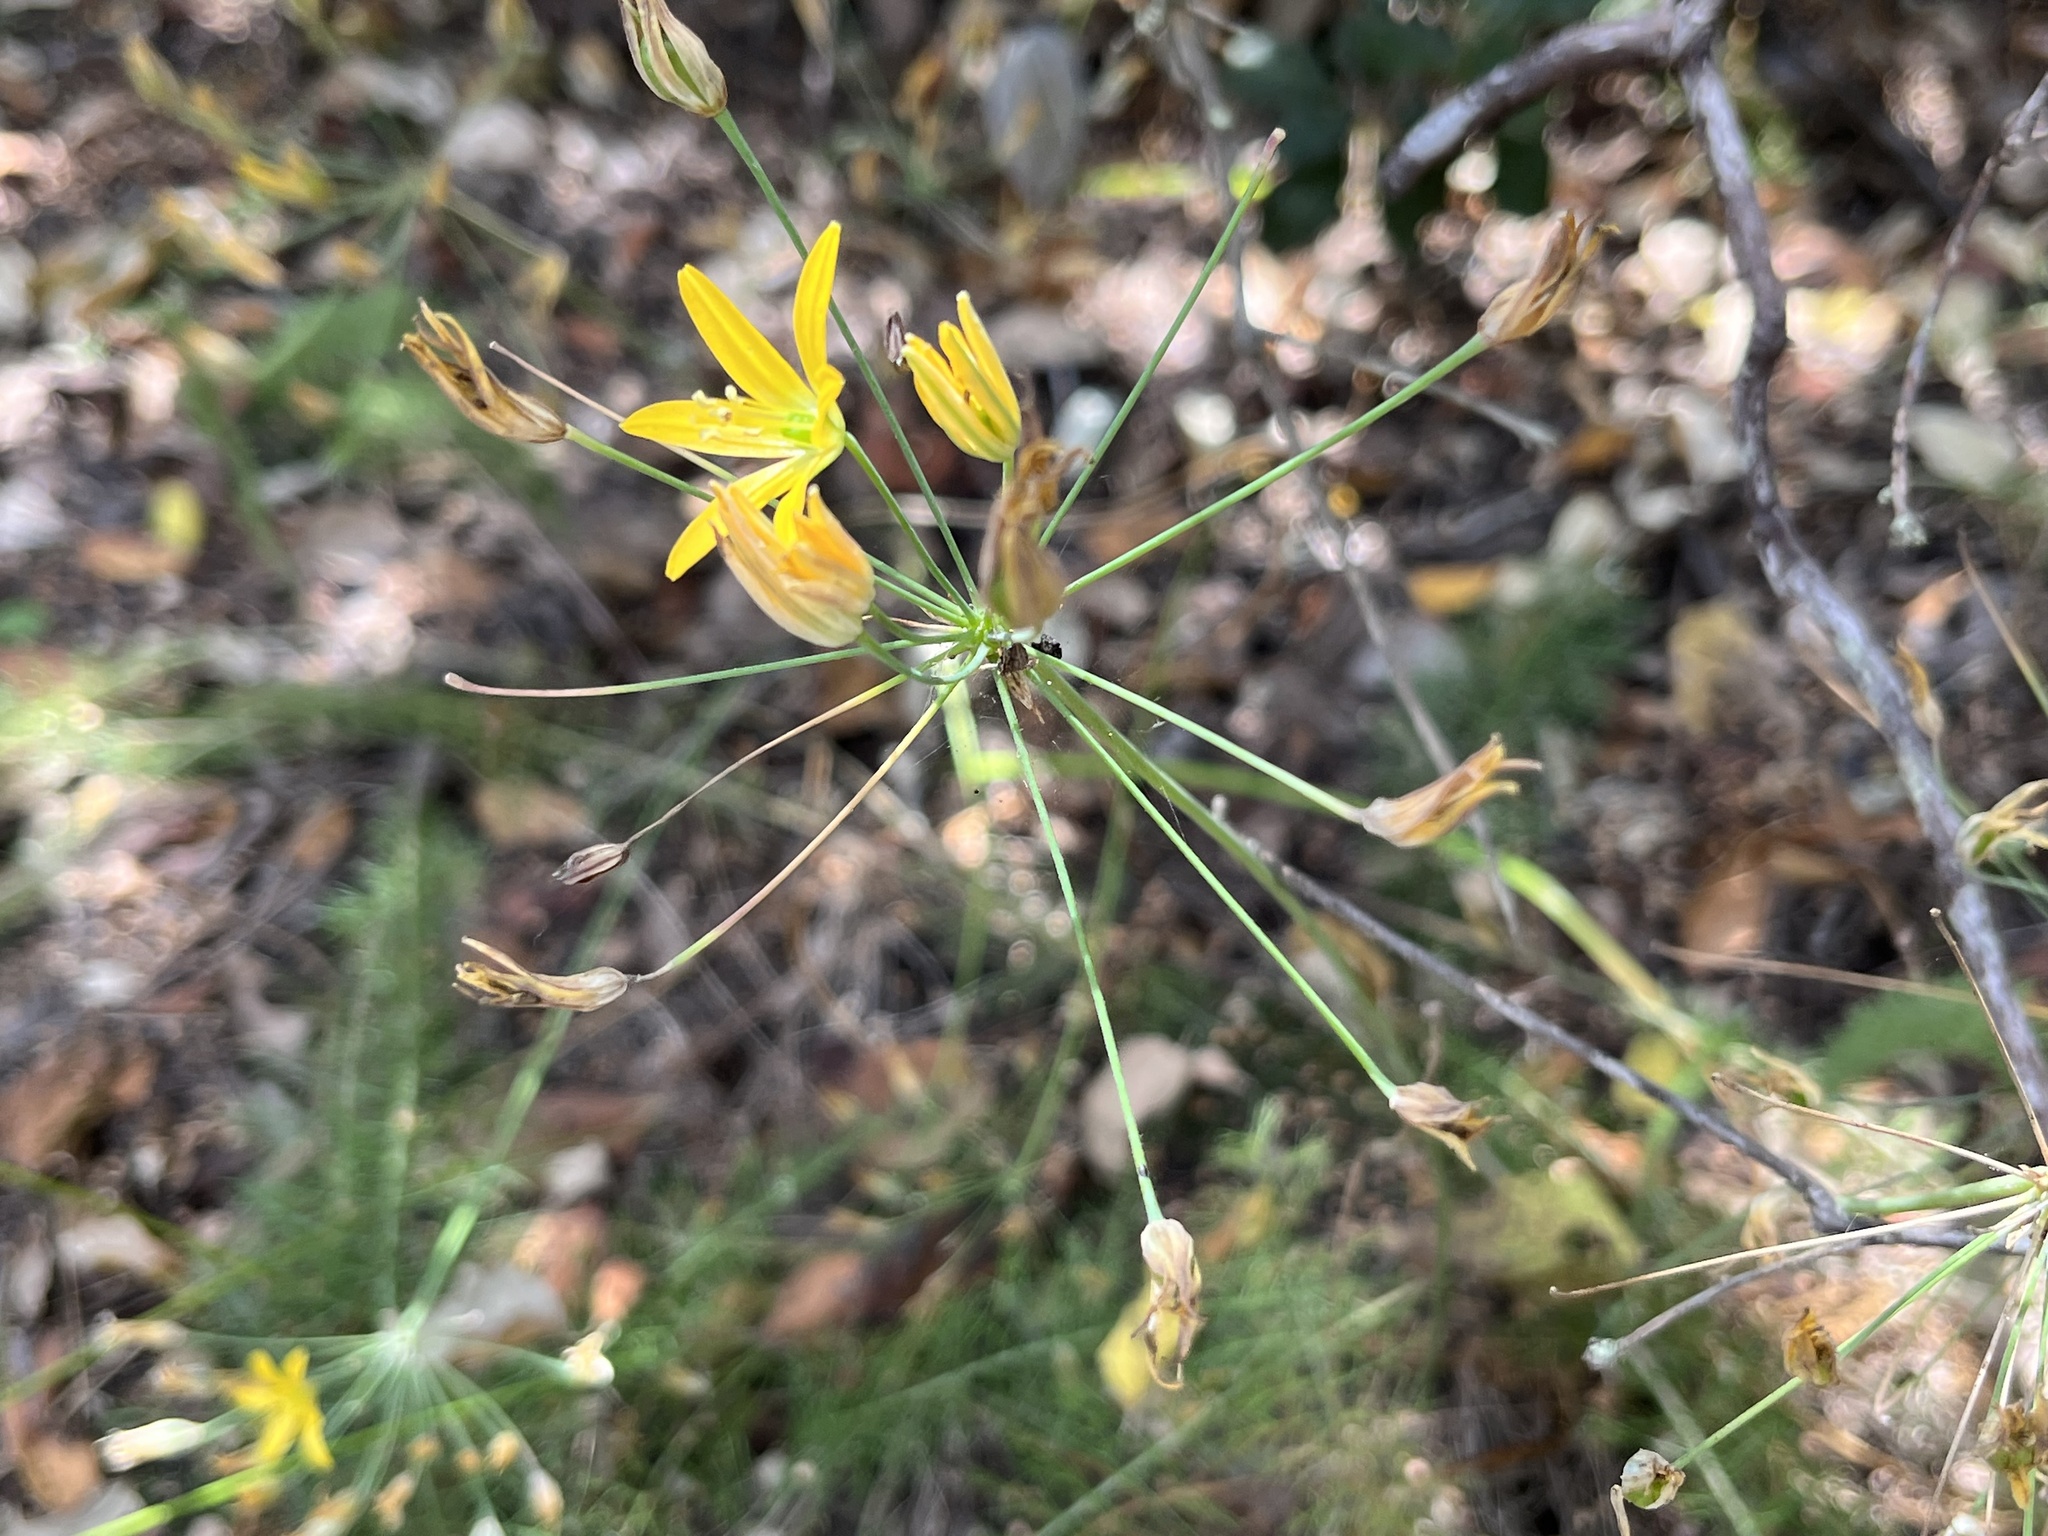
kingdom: Plantae
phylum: Tracheophyta
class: Liliopsida
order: Asparagales
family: Asparagaceae
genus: Bloomeria
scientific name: Bloomeria crocea
